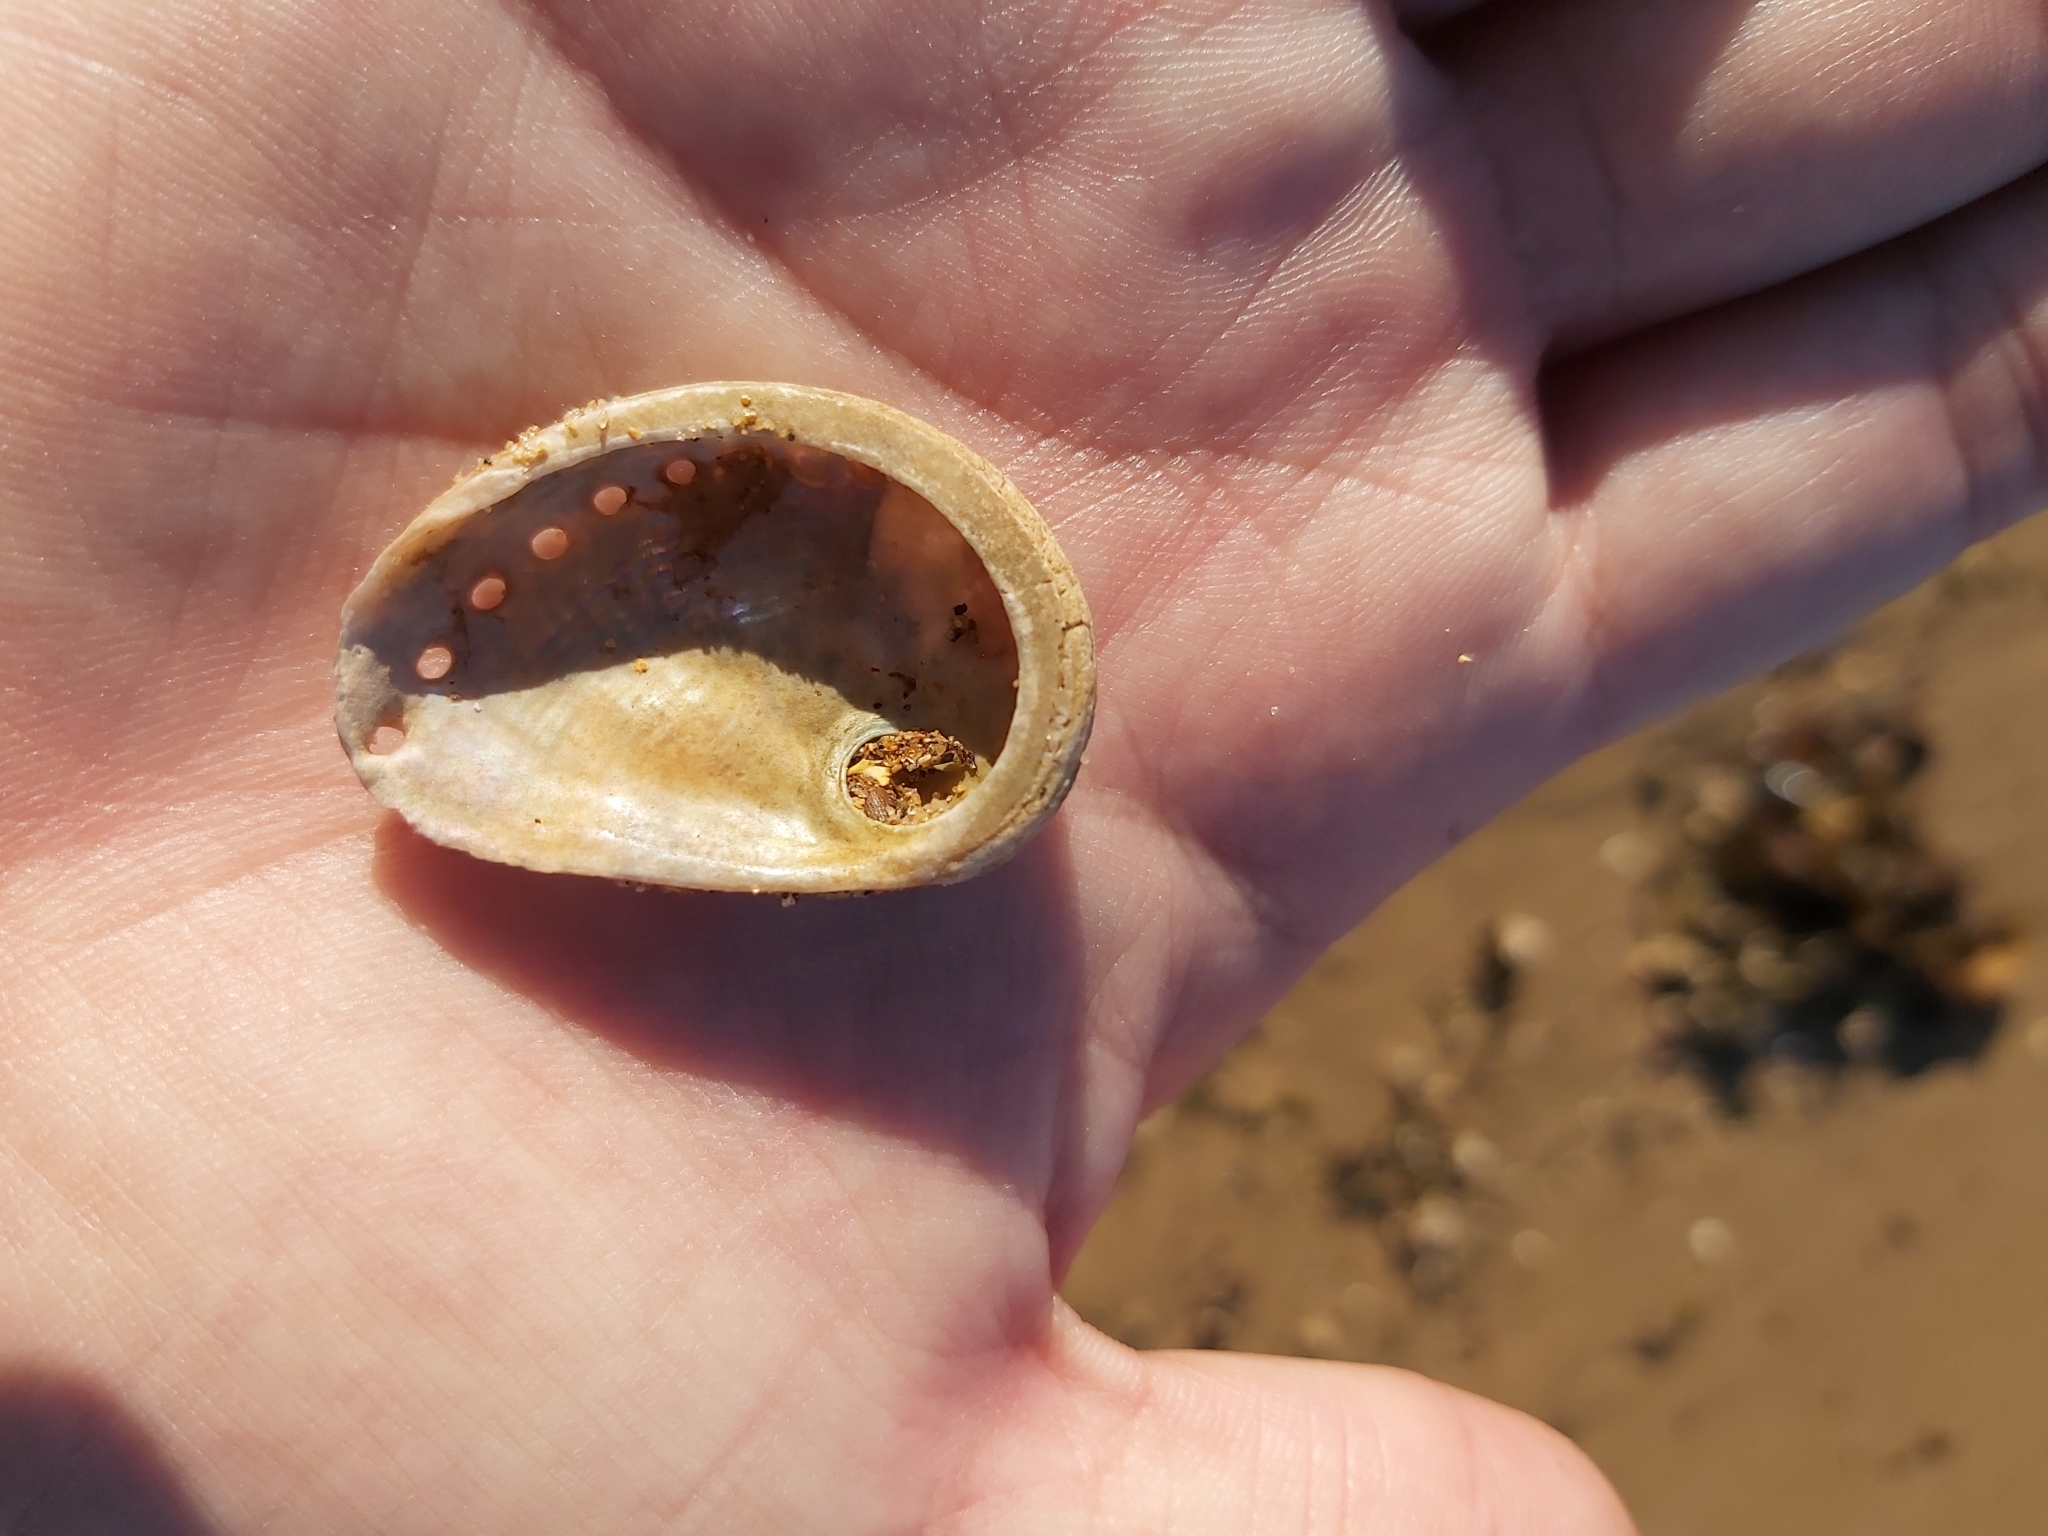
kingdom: Animalia
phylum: Mollusca
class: Gastropoda
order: Lepetellida
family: Haliotidae
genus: Haliotis
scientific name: Haliotis coccoradiata
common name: Reddish-rayed abalone
